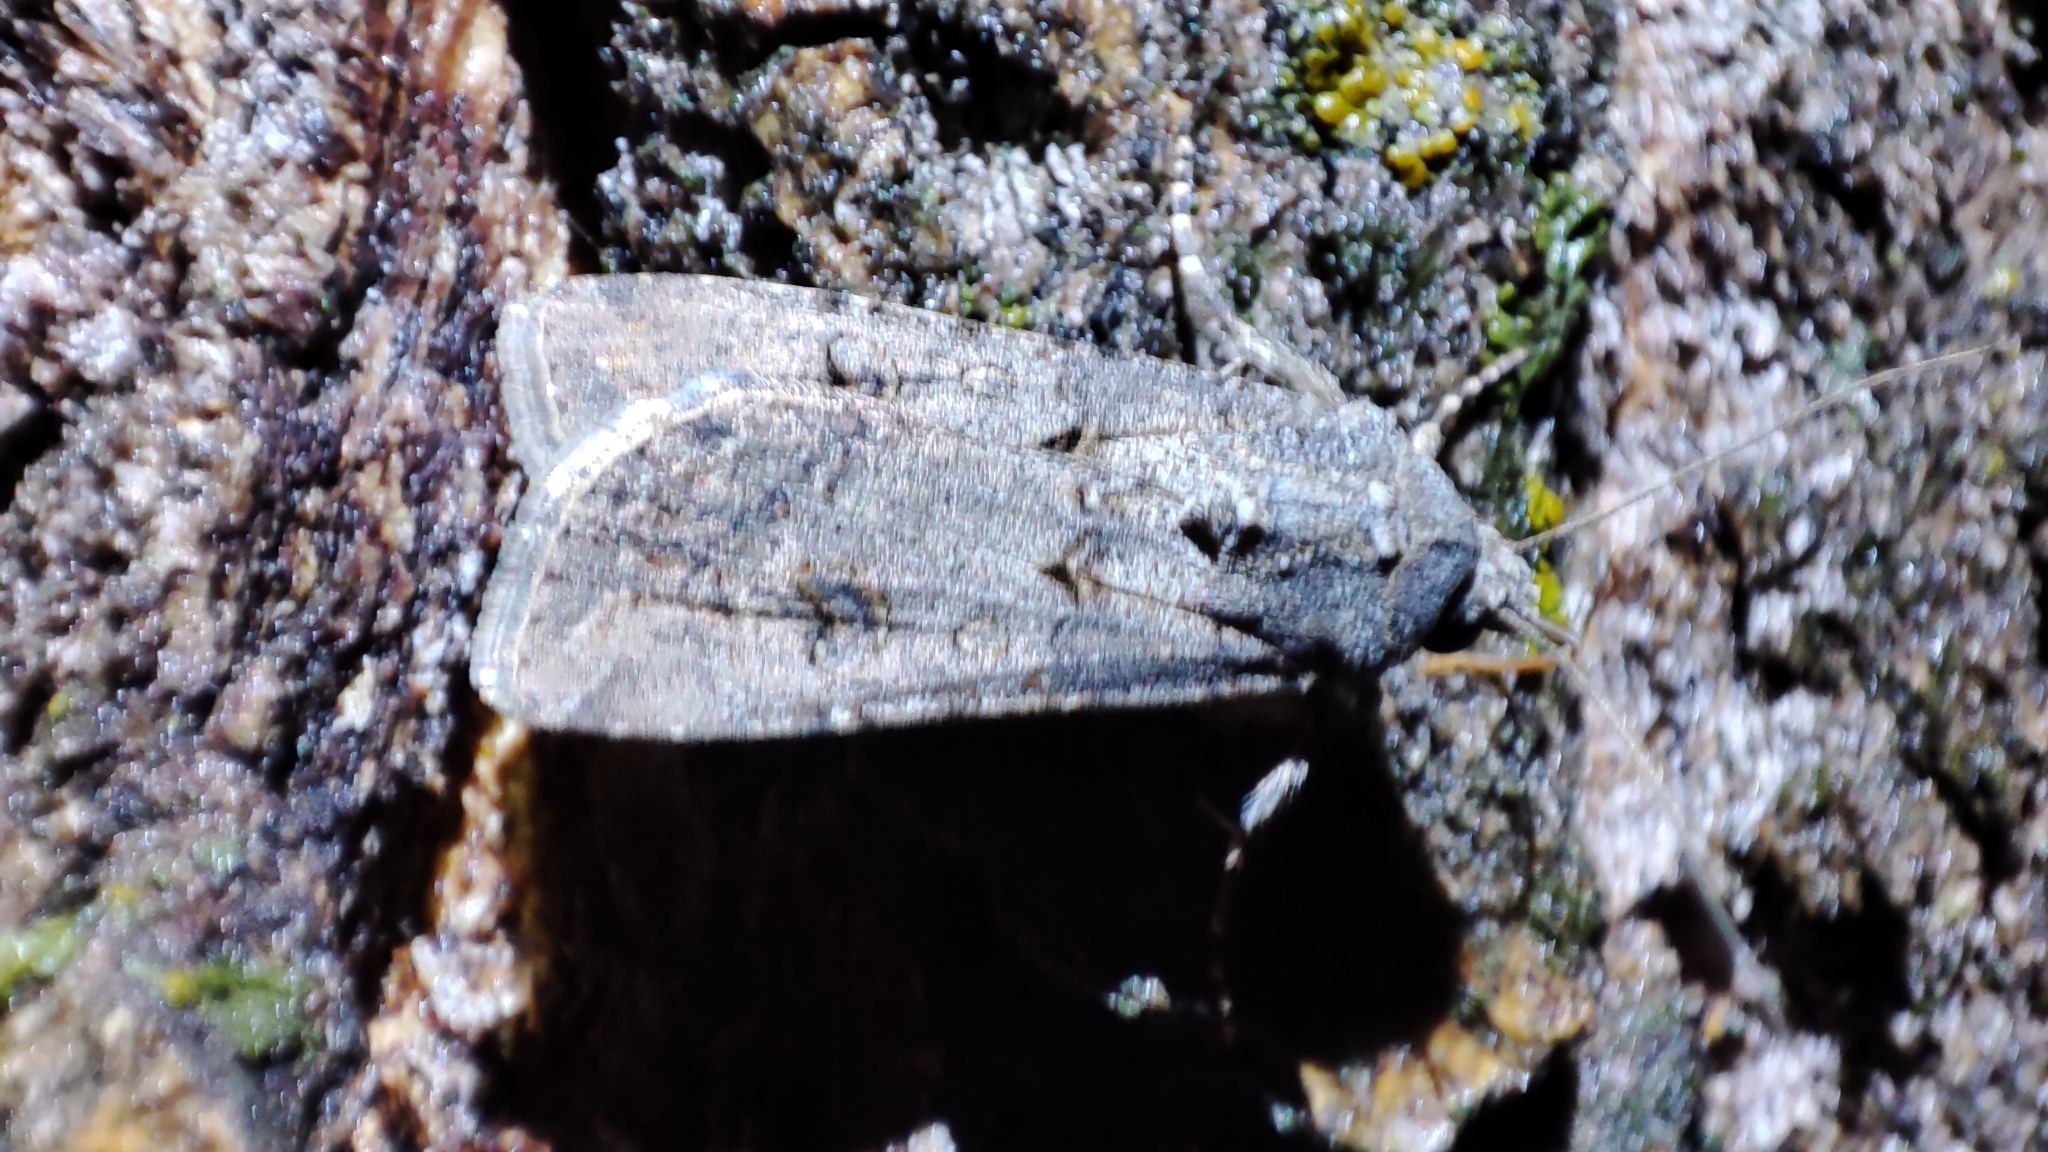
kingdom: Animalia
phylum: Arthropoda
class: Insecta
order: Lepidoptera
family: Noctuidae
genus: Agrotis
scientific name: Agrotis segetum
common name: Turnip moth
